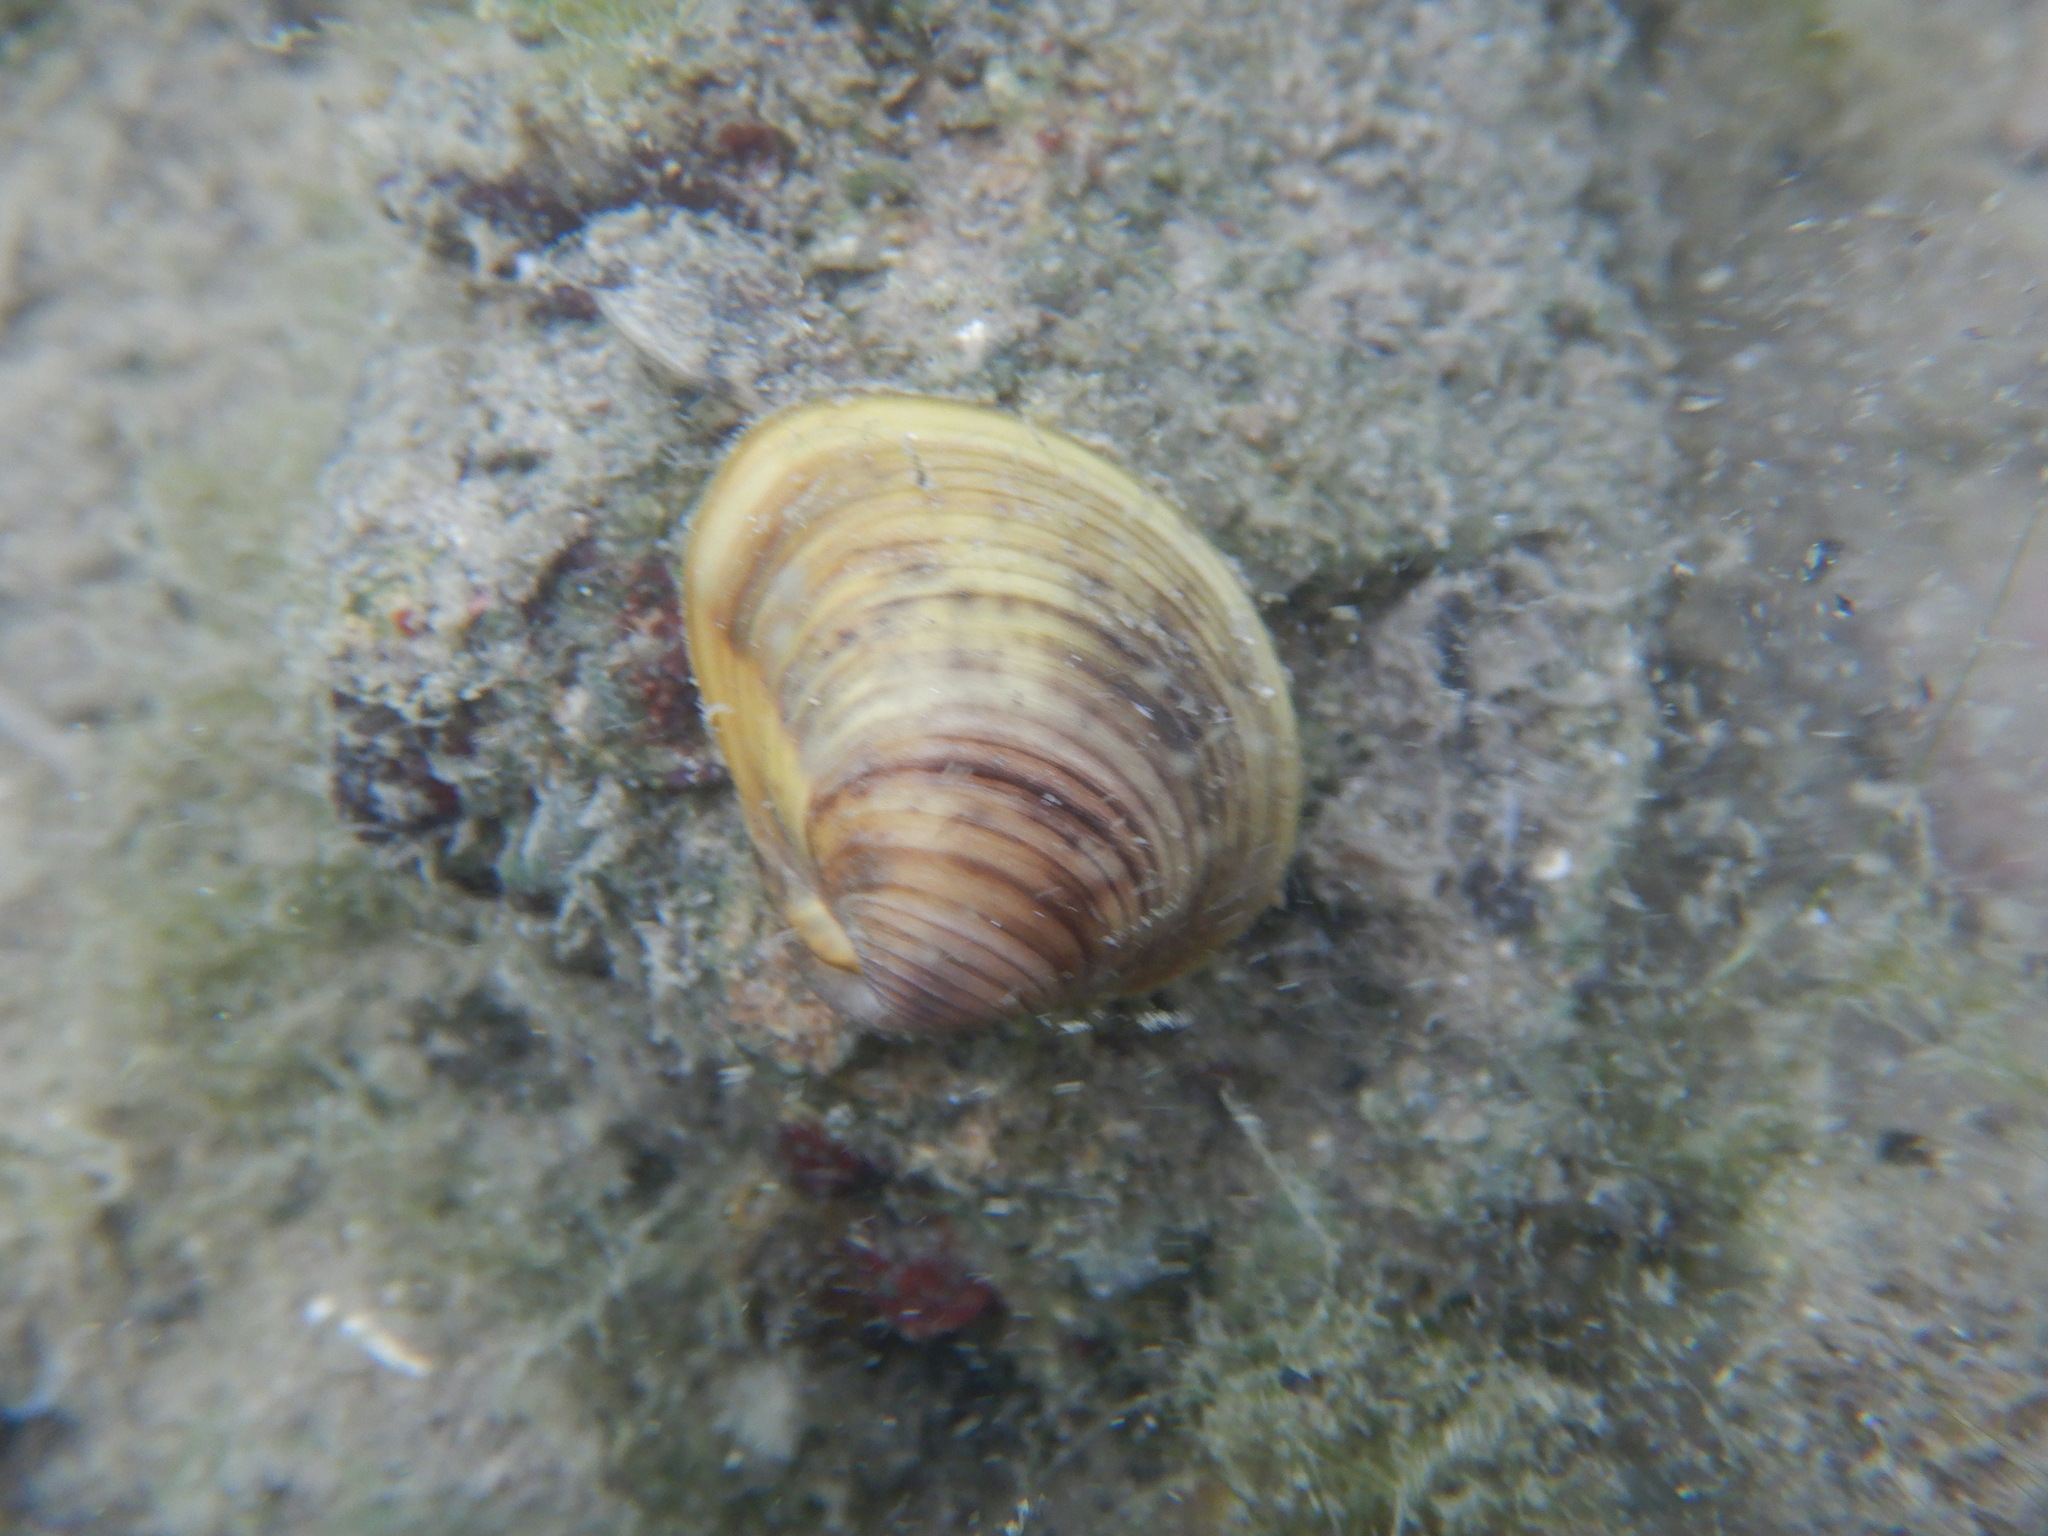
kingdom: Animalia
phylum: Mollusca
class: Bivalvia
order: Venerida
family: Cyrenidae
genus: Corbicula
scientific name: Corbicula fluminea
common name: Asian clam
